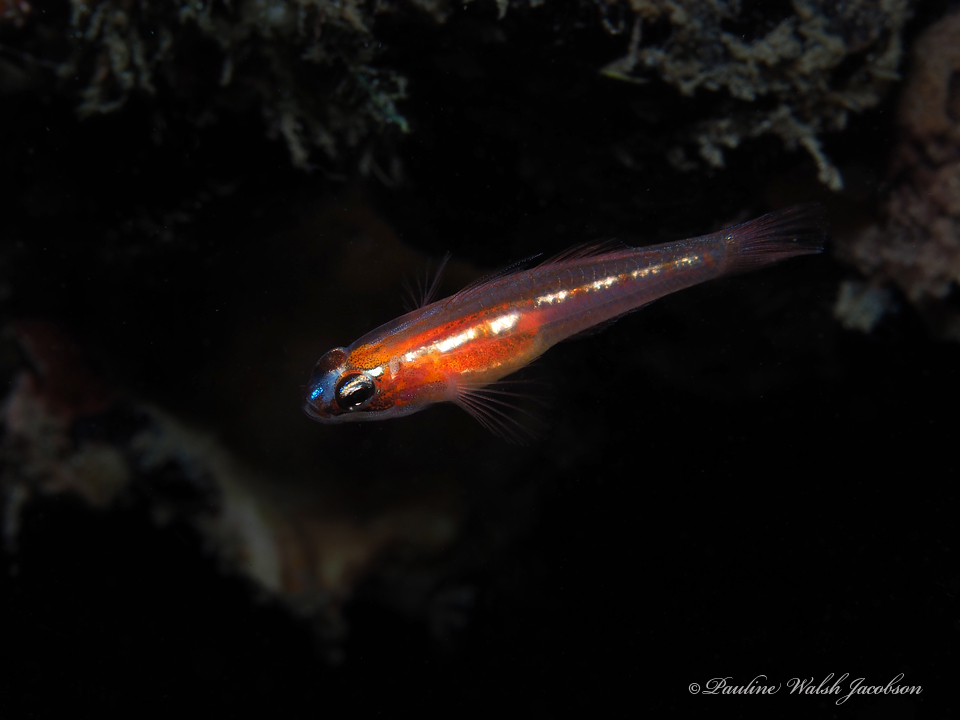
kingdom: Animalia
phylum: Chordata
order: Perciformes
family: Gobiidae
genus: Coryphopterus
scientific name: Coryphopterus personatus
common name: Masked goby
